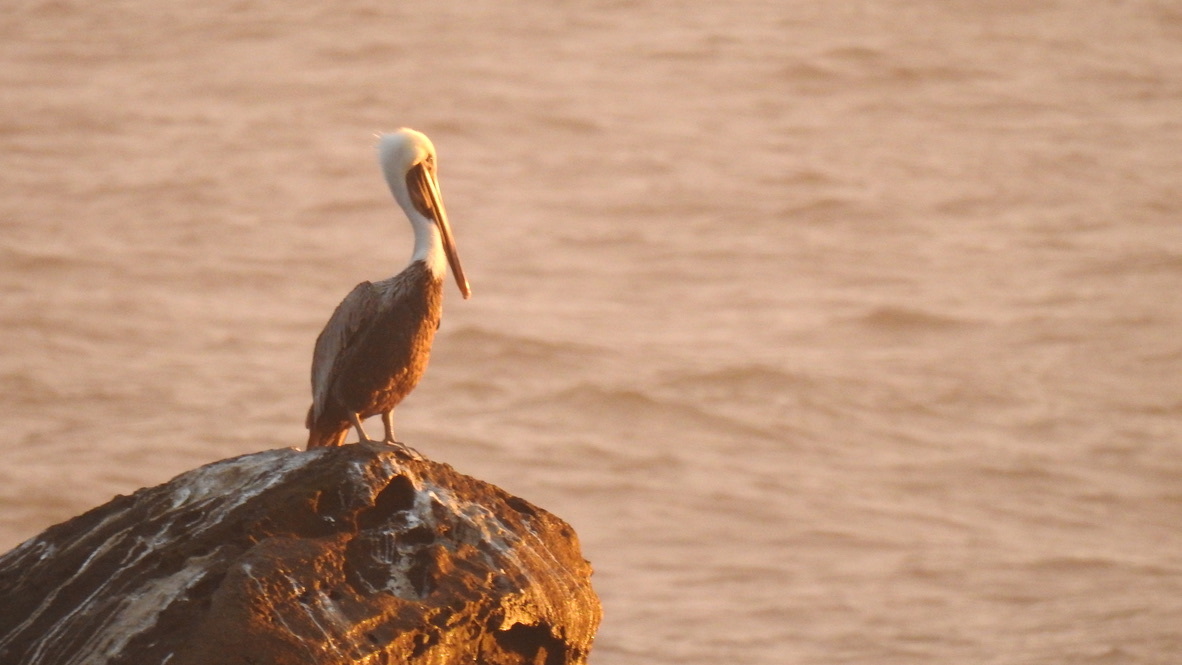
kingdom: Animalia
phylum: Chordata
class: Aves
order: Pelecaniformes
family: Pelecanidae
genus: Pelecanus
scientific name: Pelecanus occidentalis
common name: Brown pelican
